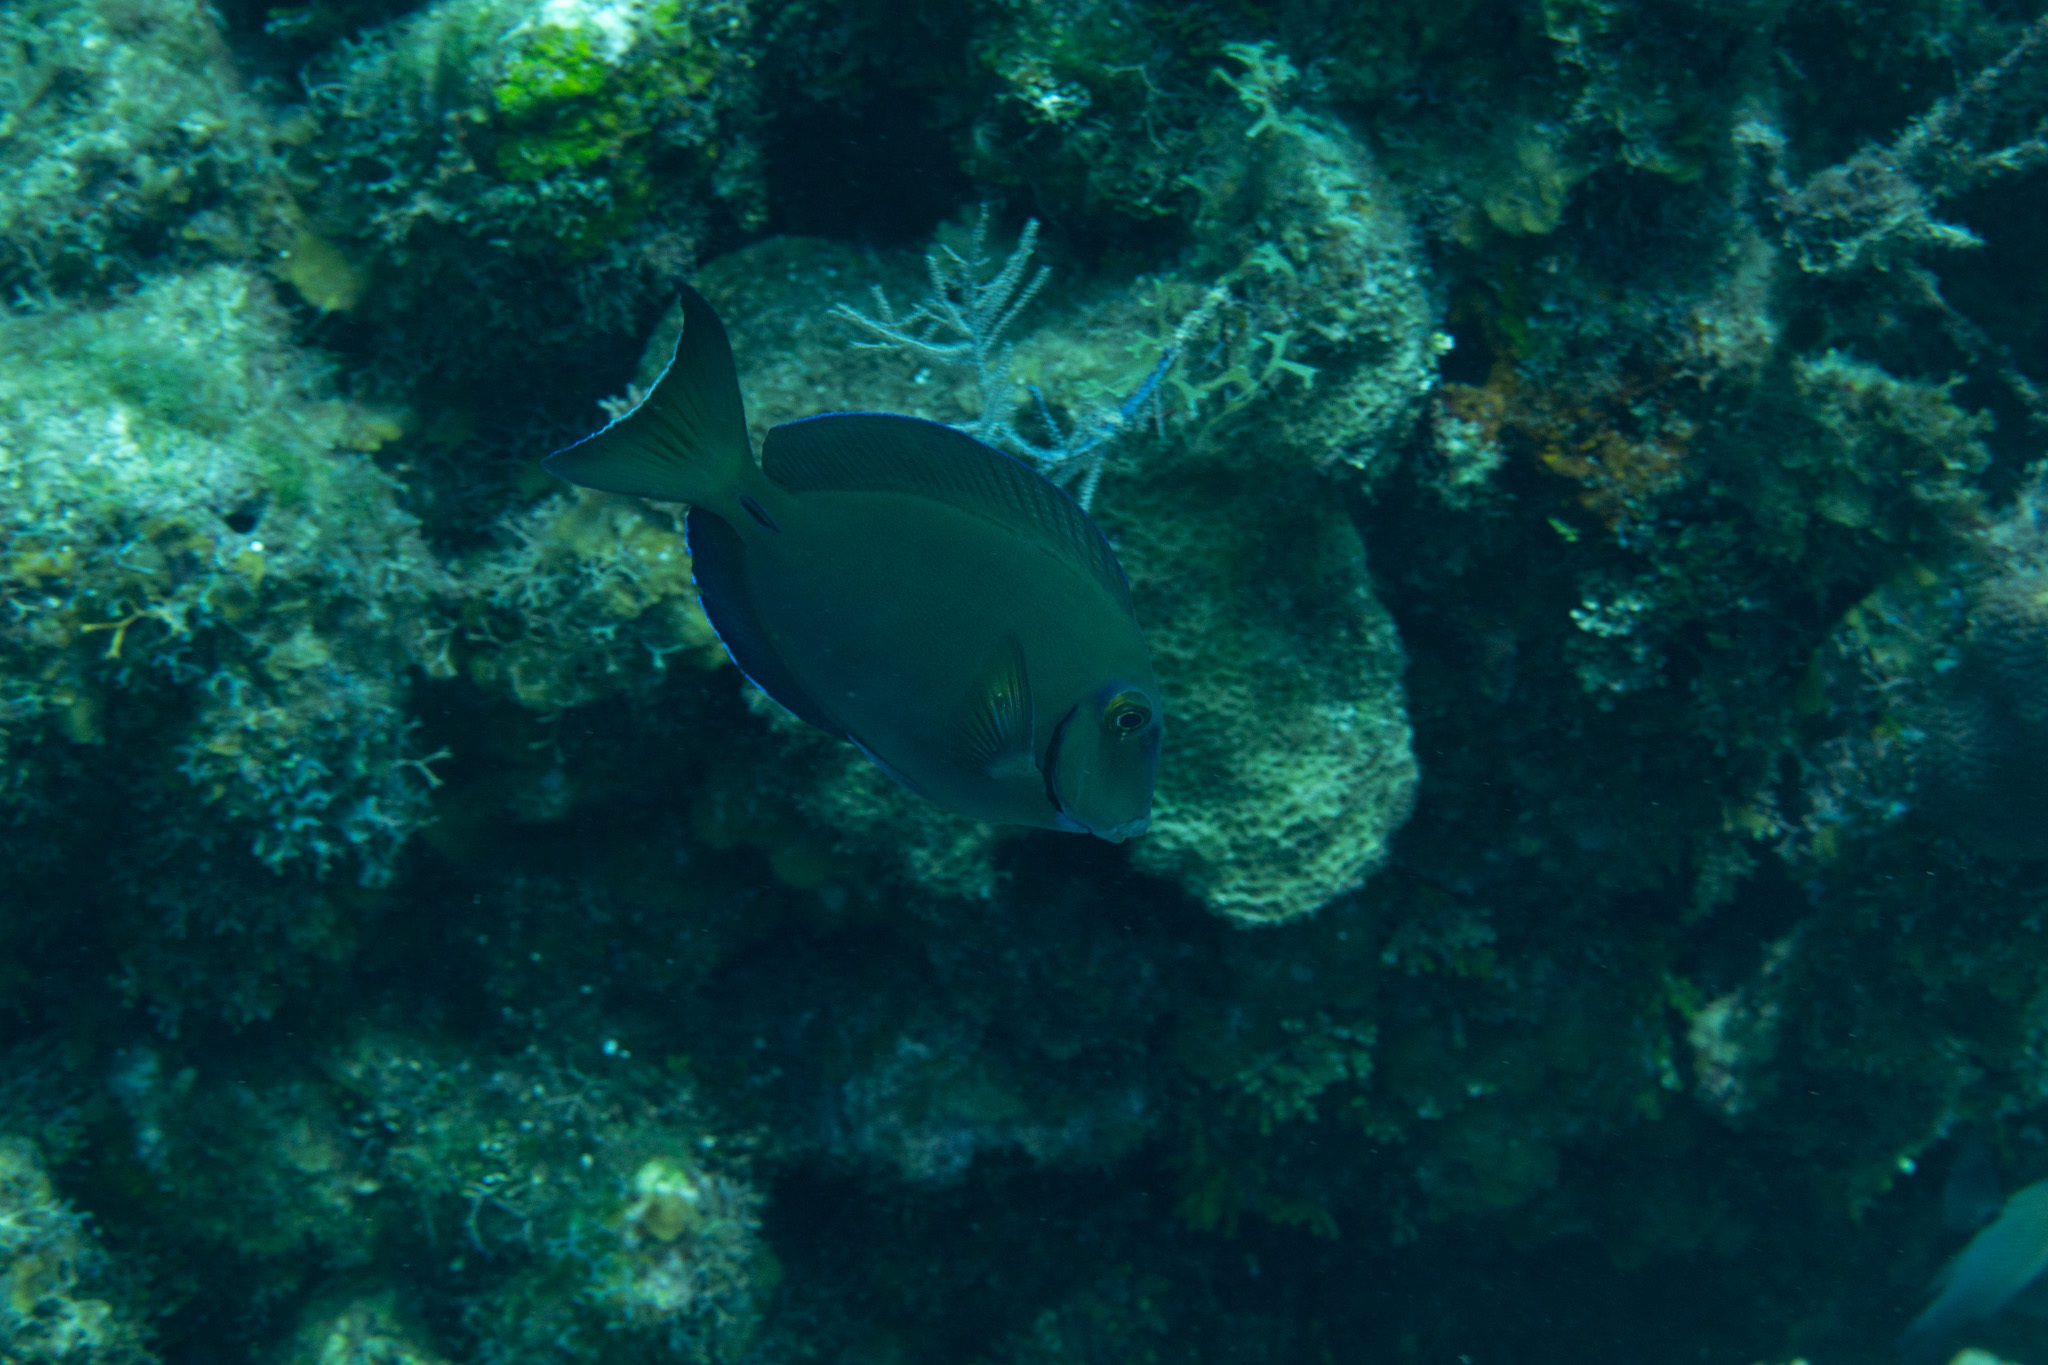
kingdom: Animalia
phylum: Chordata
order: Perciformes
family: Acanthuridae
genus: Acanthurus
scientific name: Acanthurus bahianus
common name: Ocean surgeon
